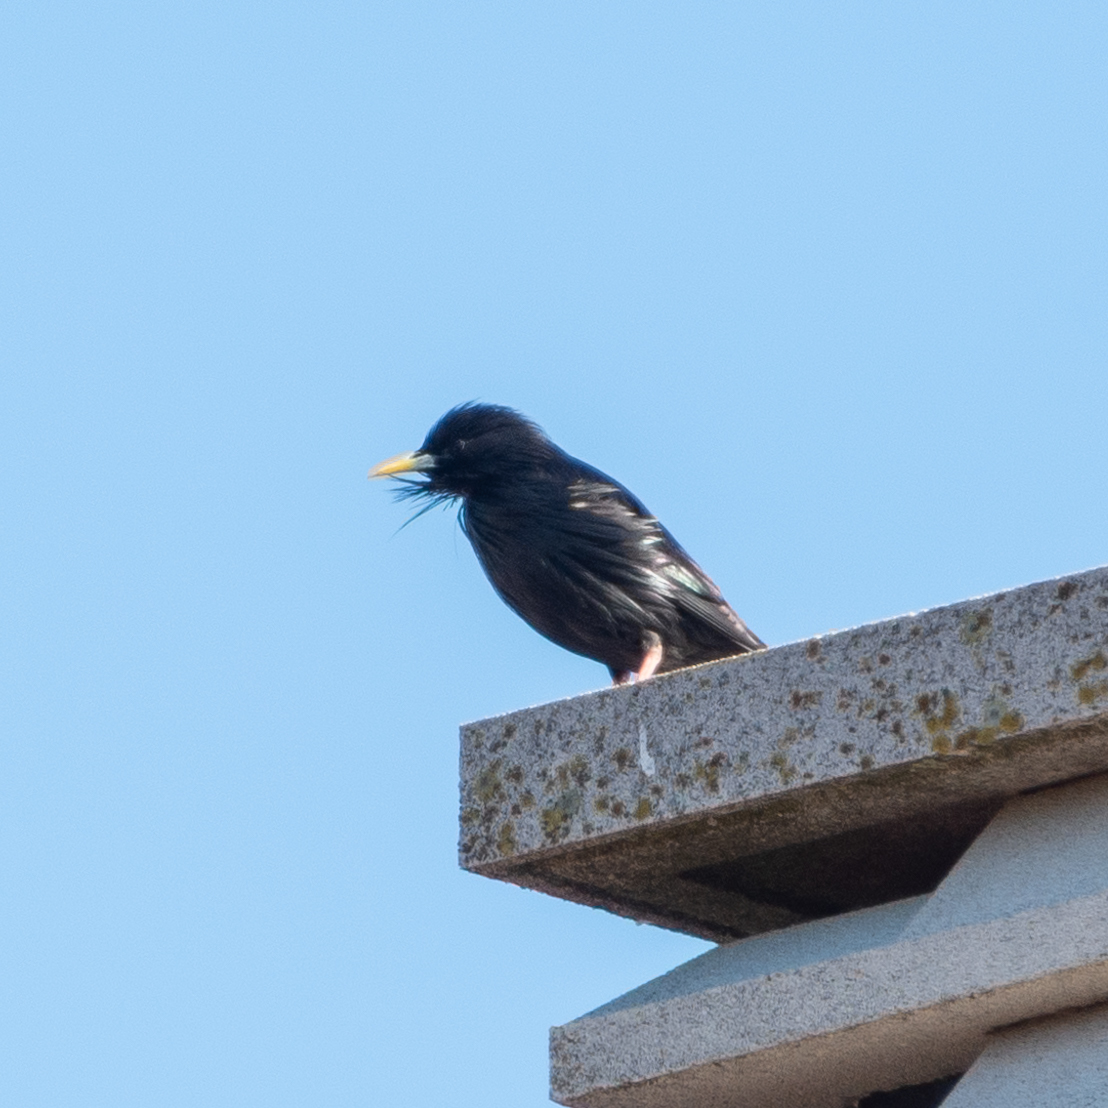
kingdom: Animalia
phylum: Chordata
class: Aves
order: Passeriformes
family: Sturnidae
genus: Sturnus
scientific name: Sturnus unicolor
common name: Spotless starling
